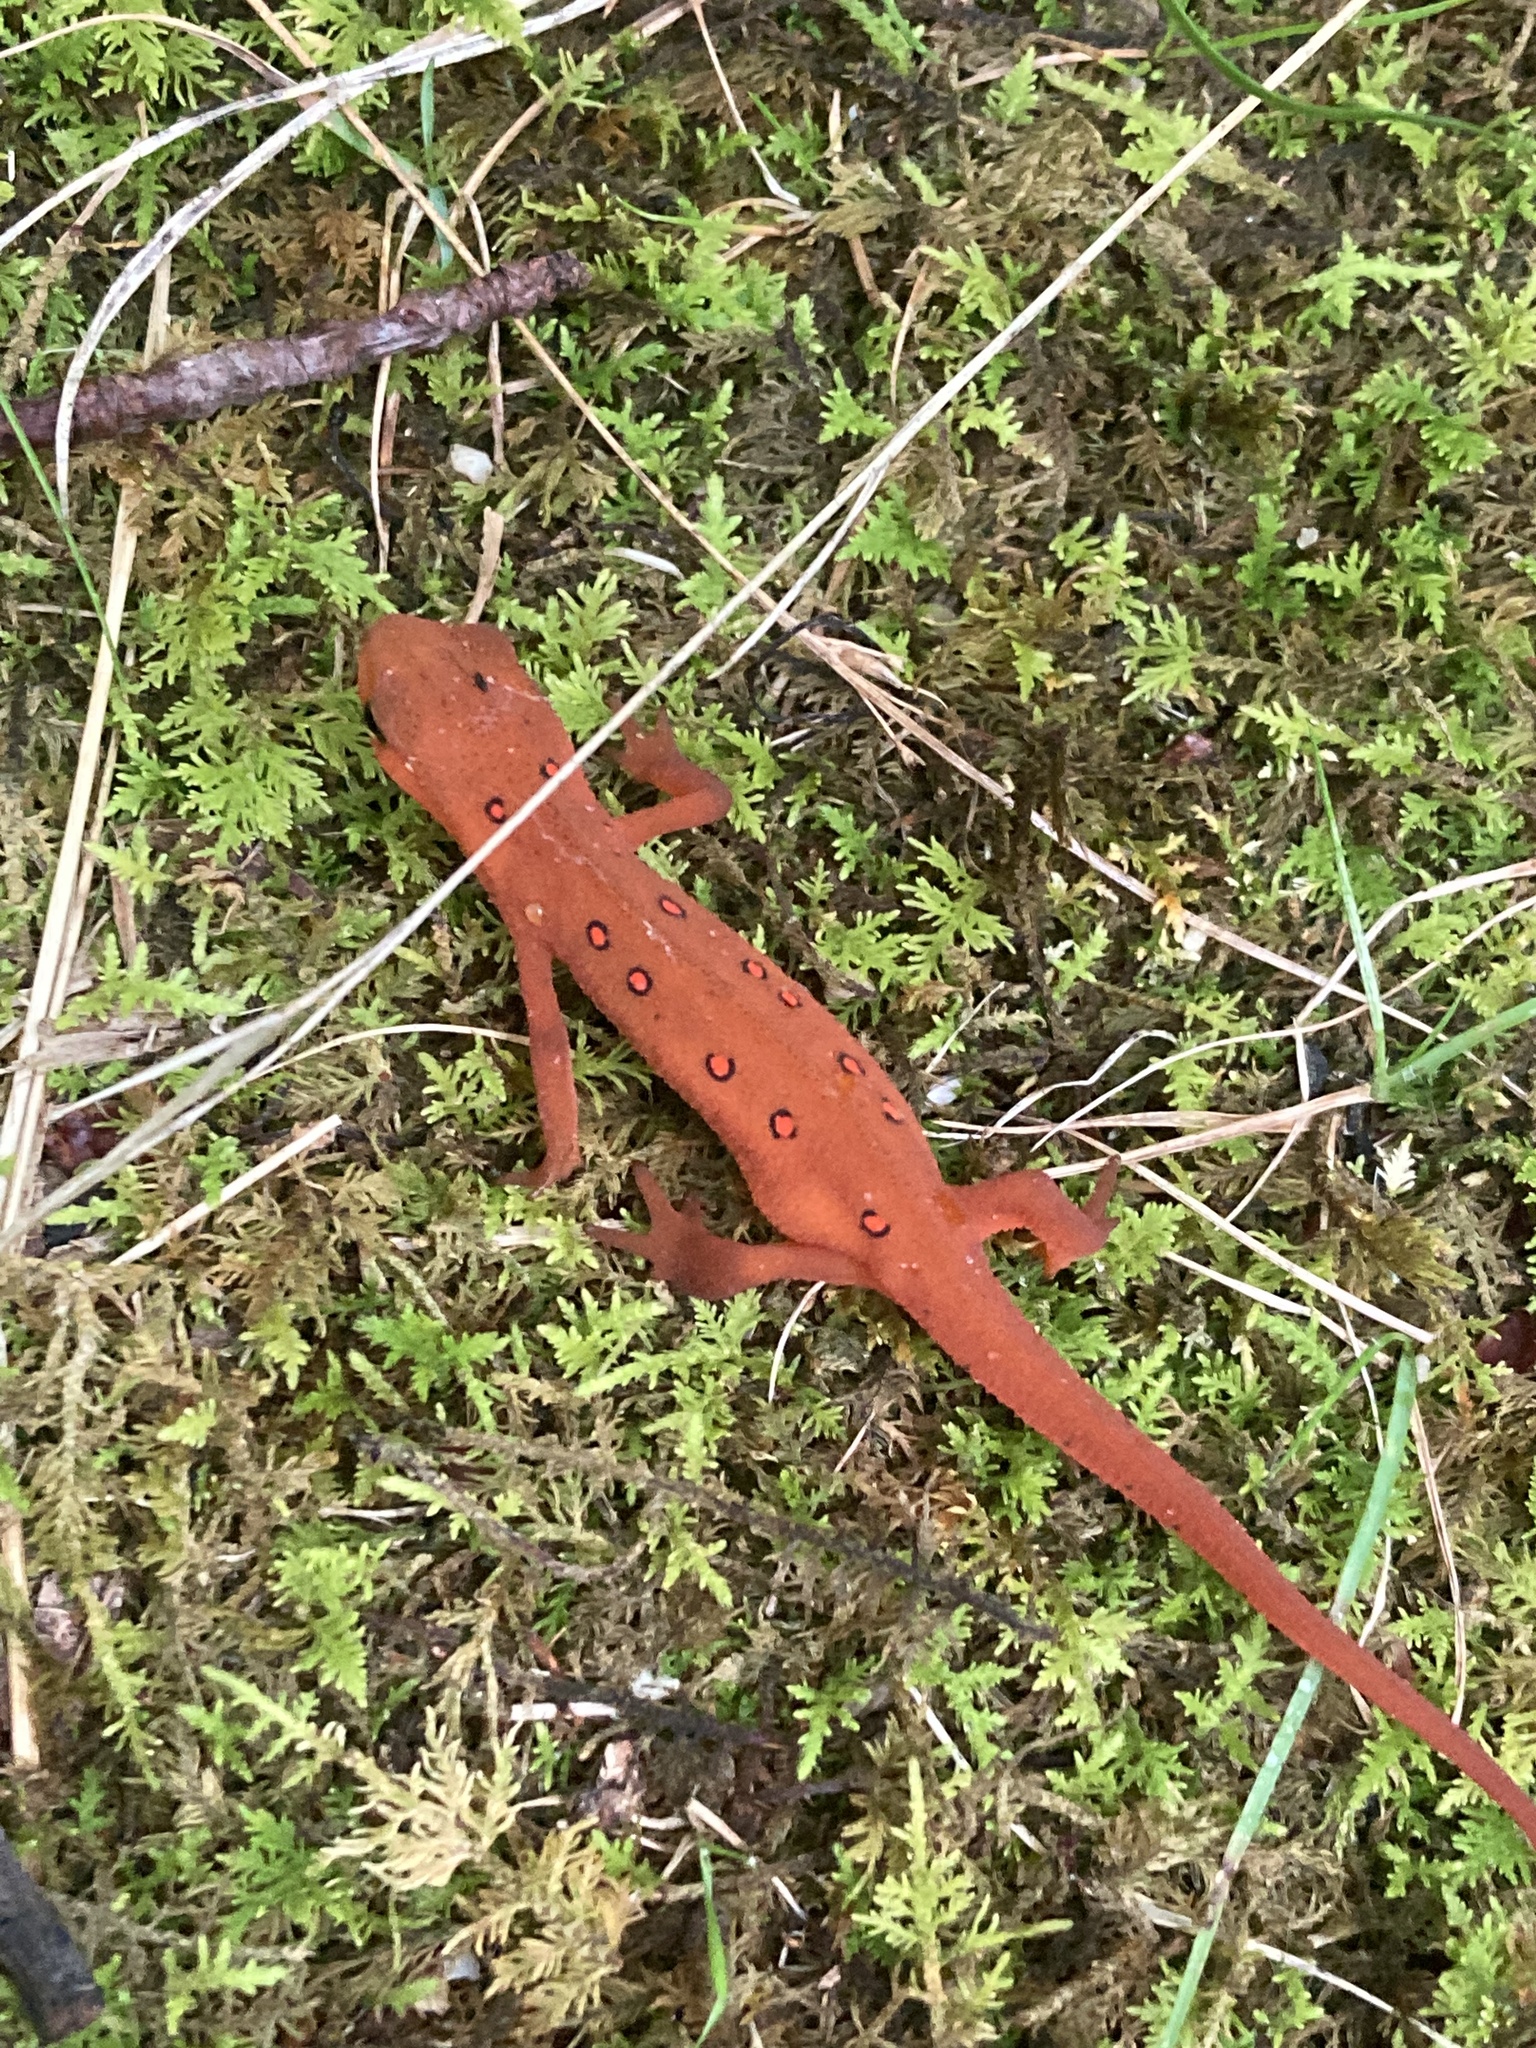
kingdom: Animalia
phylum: Chordata
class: Amphibia
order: Caudata
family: Salamandridae
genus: Notophthalmus
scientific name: Notophthalmus viridescens
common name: Eastern newt
